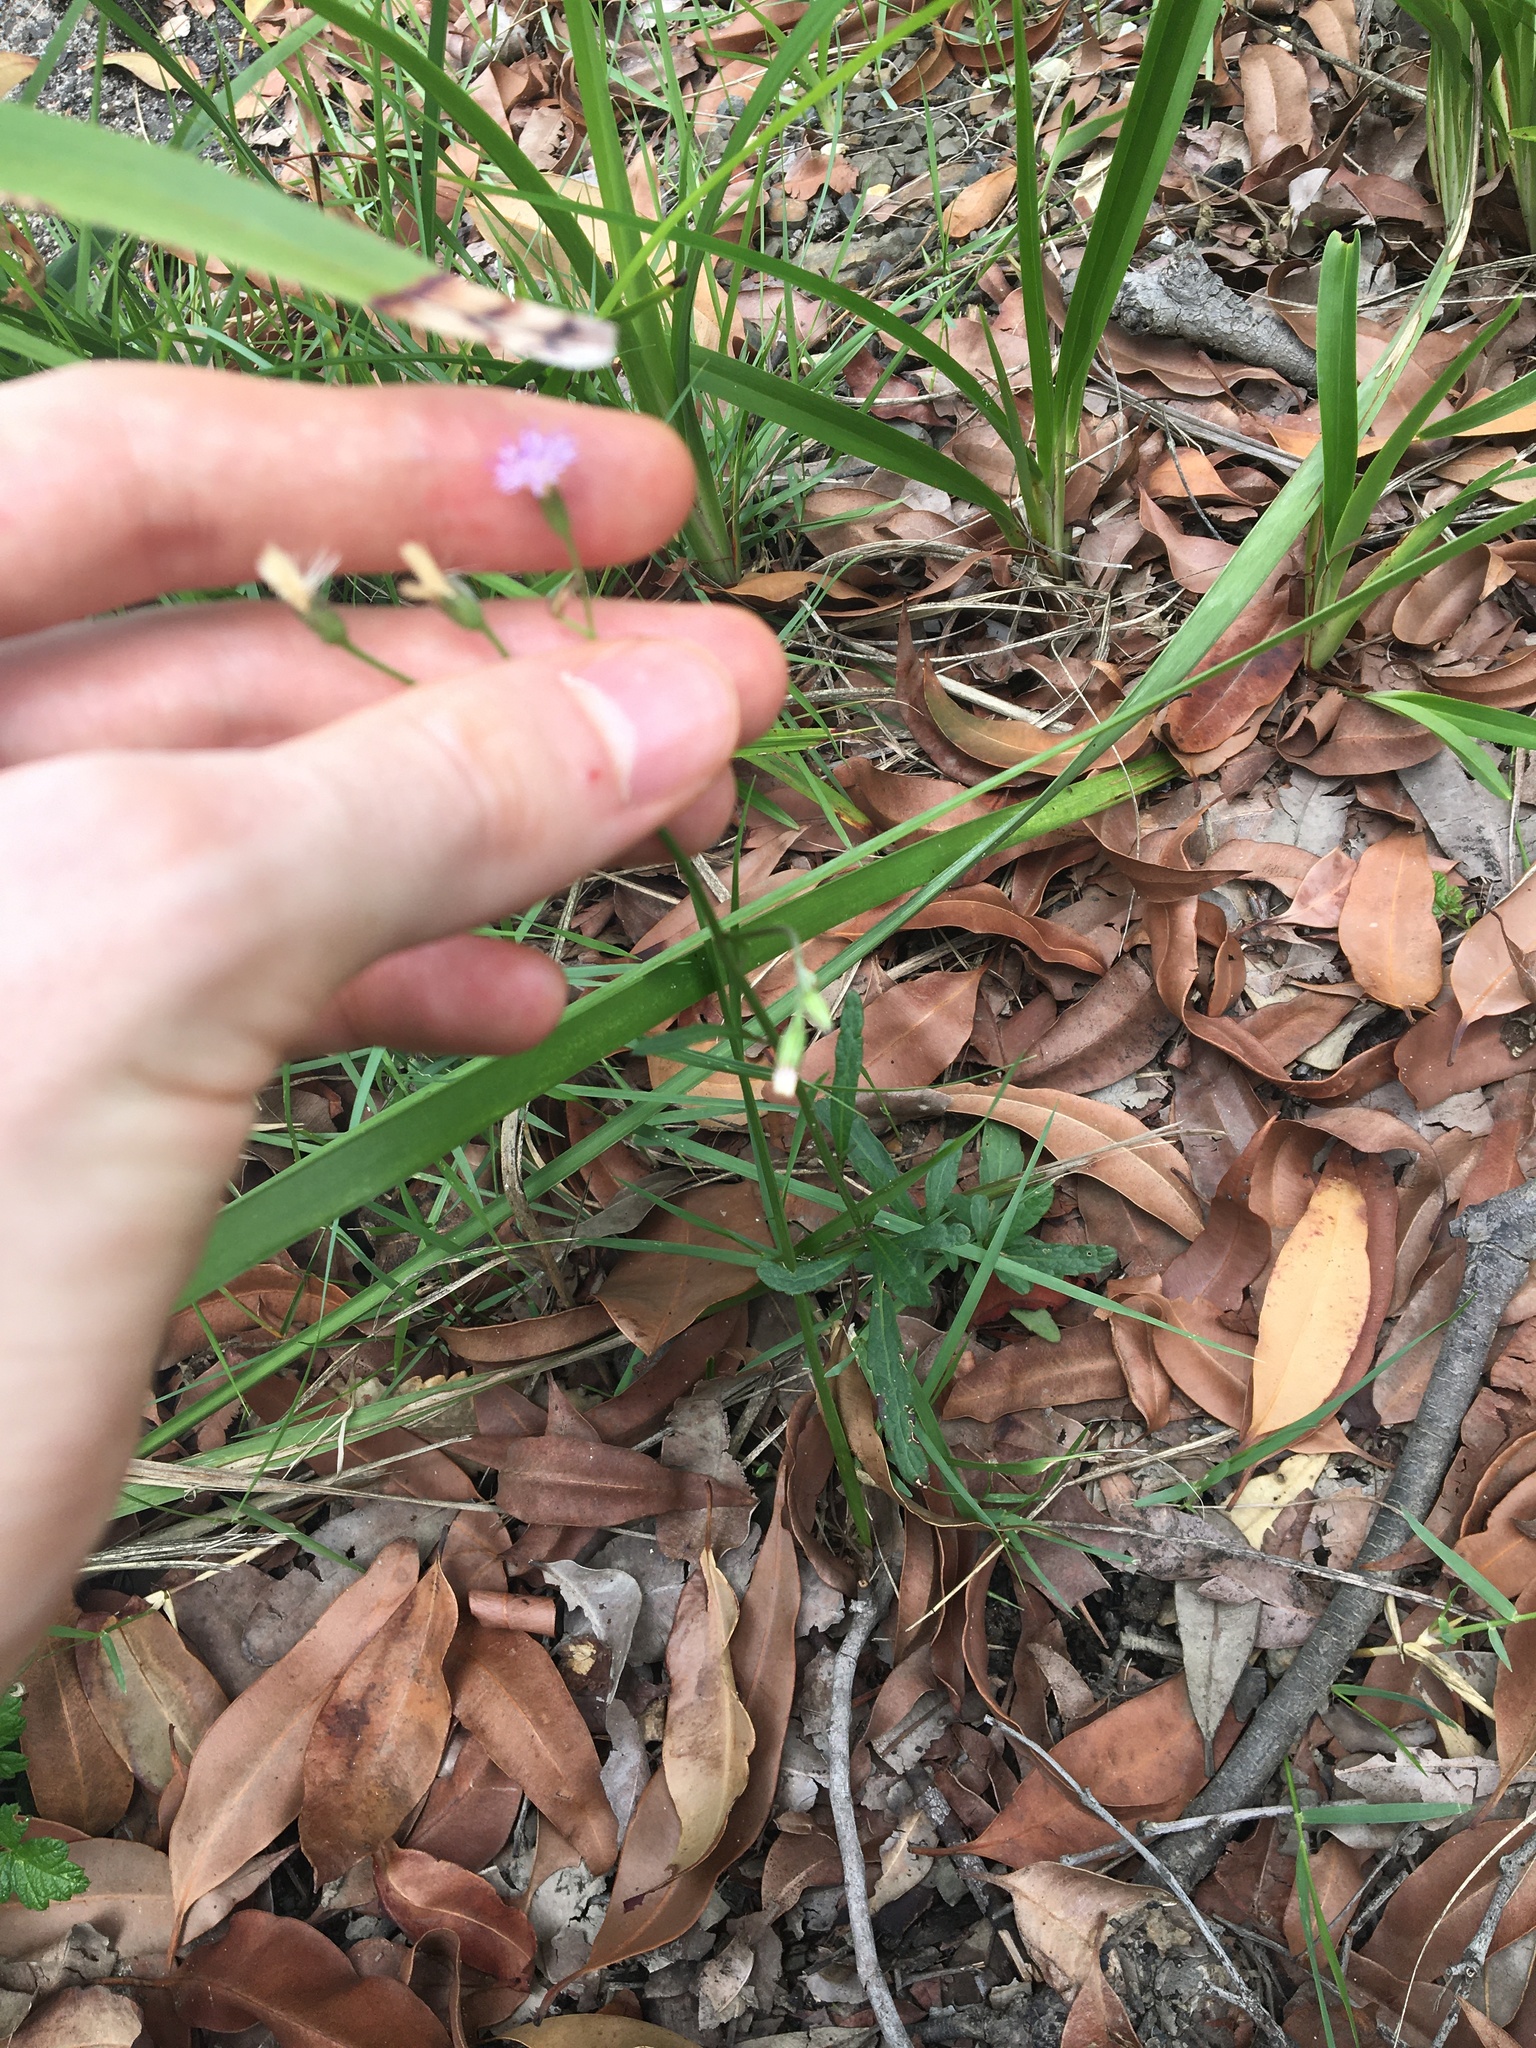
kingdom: Plantae
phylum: Tracheophyta
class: Magnoliopsida
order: Asterales
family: Asteraceae
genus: Cyanthillium
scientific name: Cyanthillium cinereum
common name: Little ironweed
